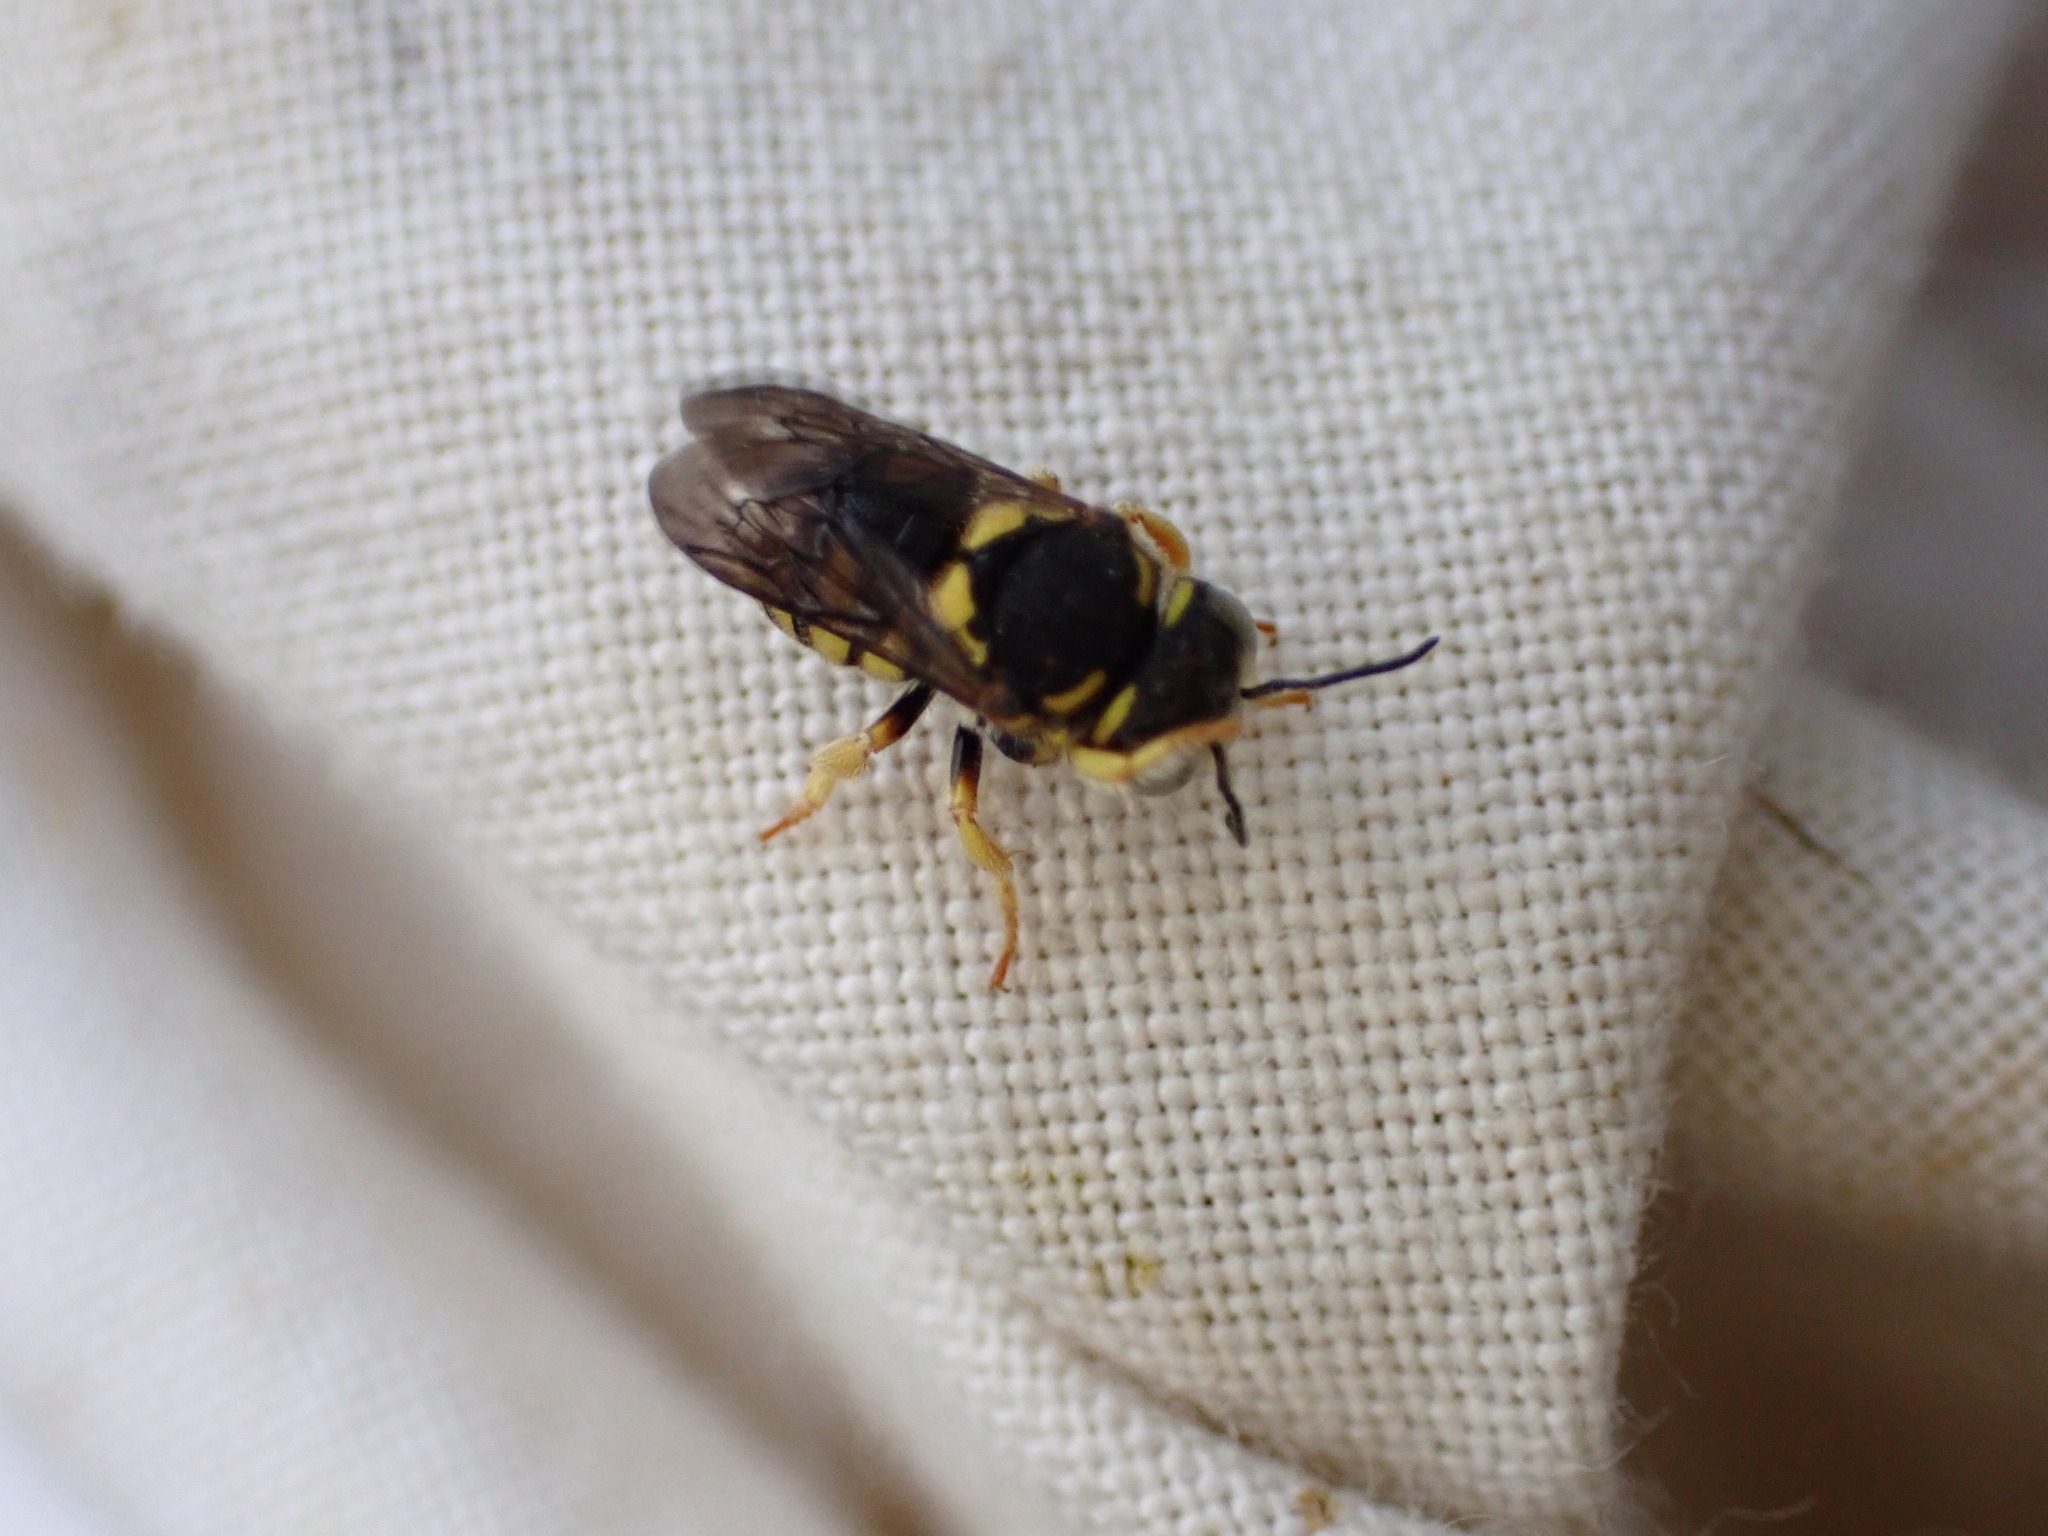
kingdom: Animalia
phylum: Arthropoda
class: Insecta
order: Hymenoptera
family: Megachilidae
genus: Anthidiellum
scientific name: Anthidiellum strigatum
